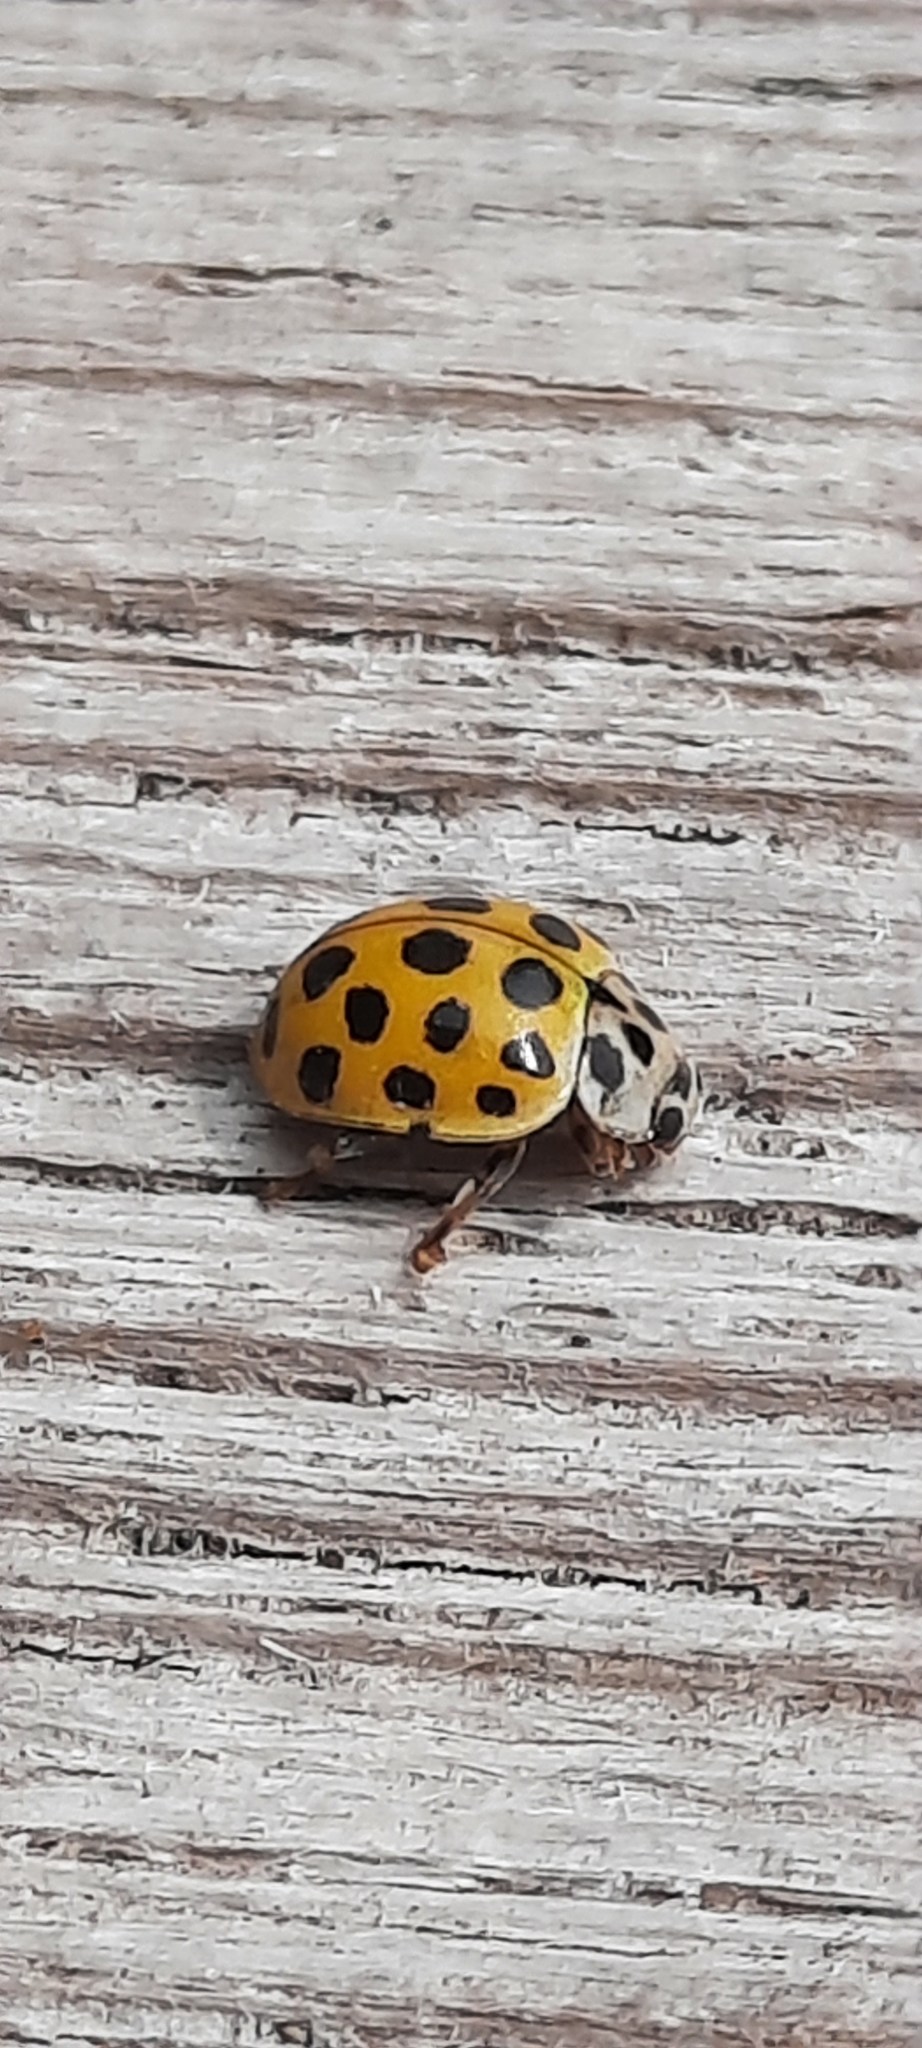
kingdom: Animalia
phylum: Arthropoda
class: Insecta
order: Coleoptera
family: Coccinellidae
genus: Harmonia
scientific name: Harmonia axyridis
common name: Harlequin ladybird
